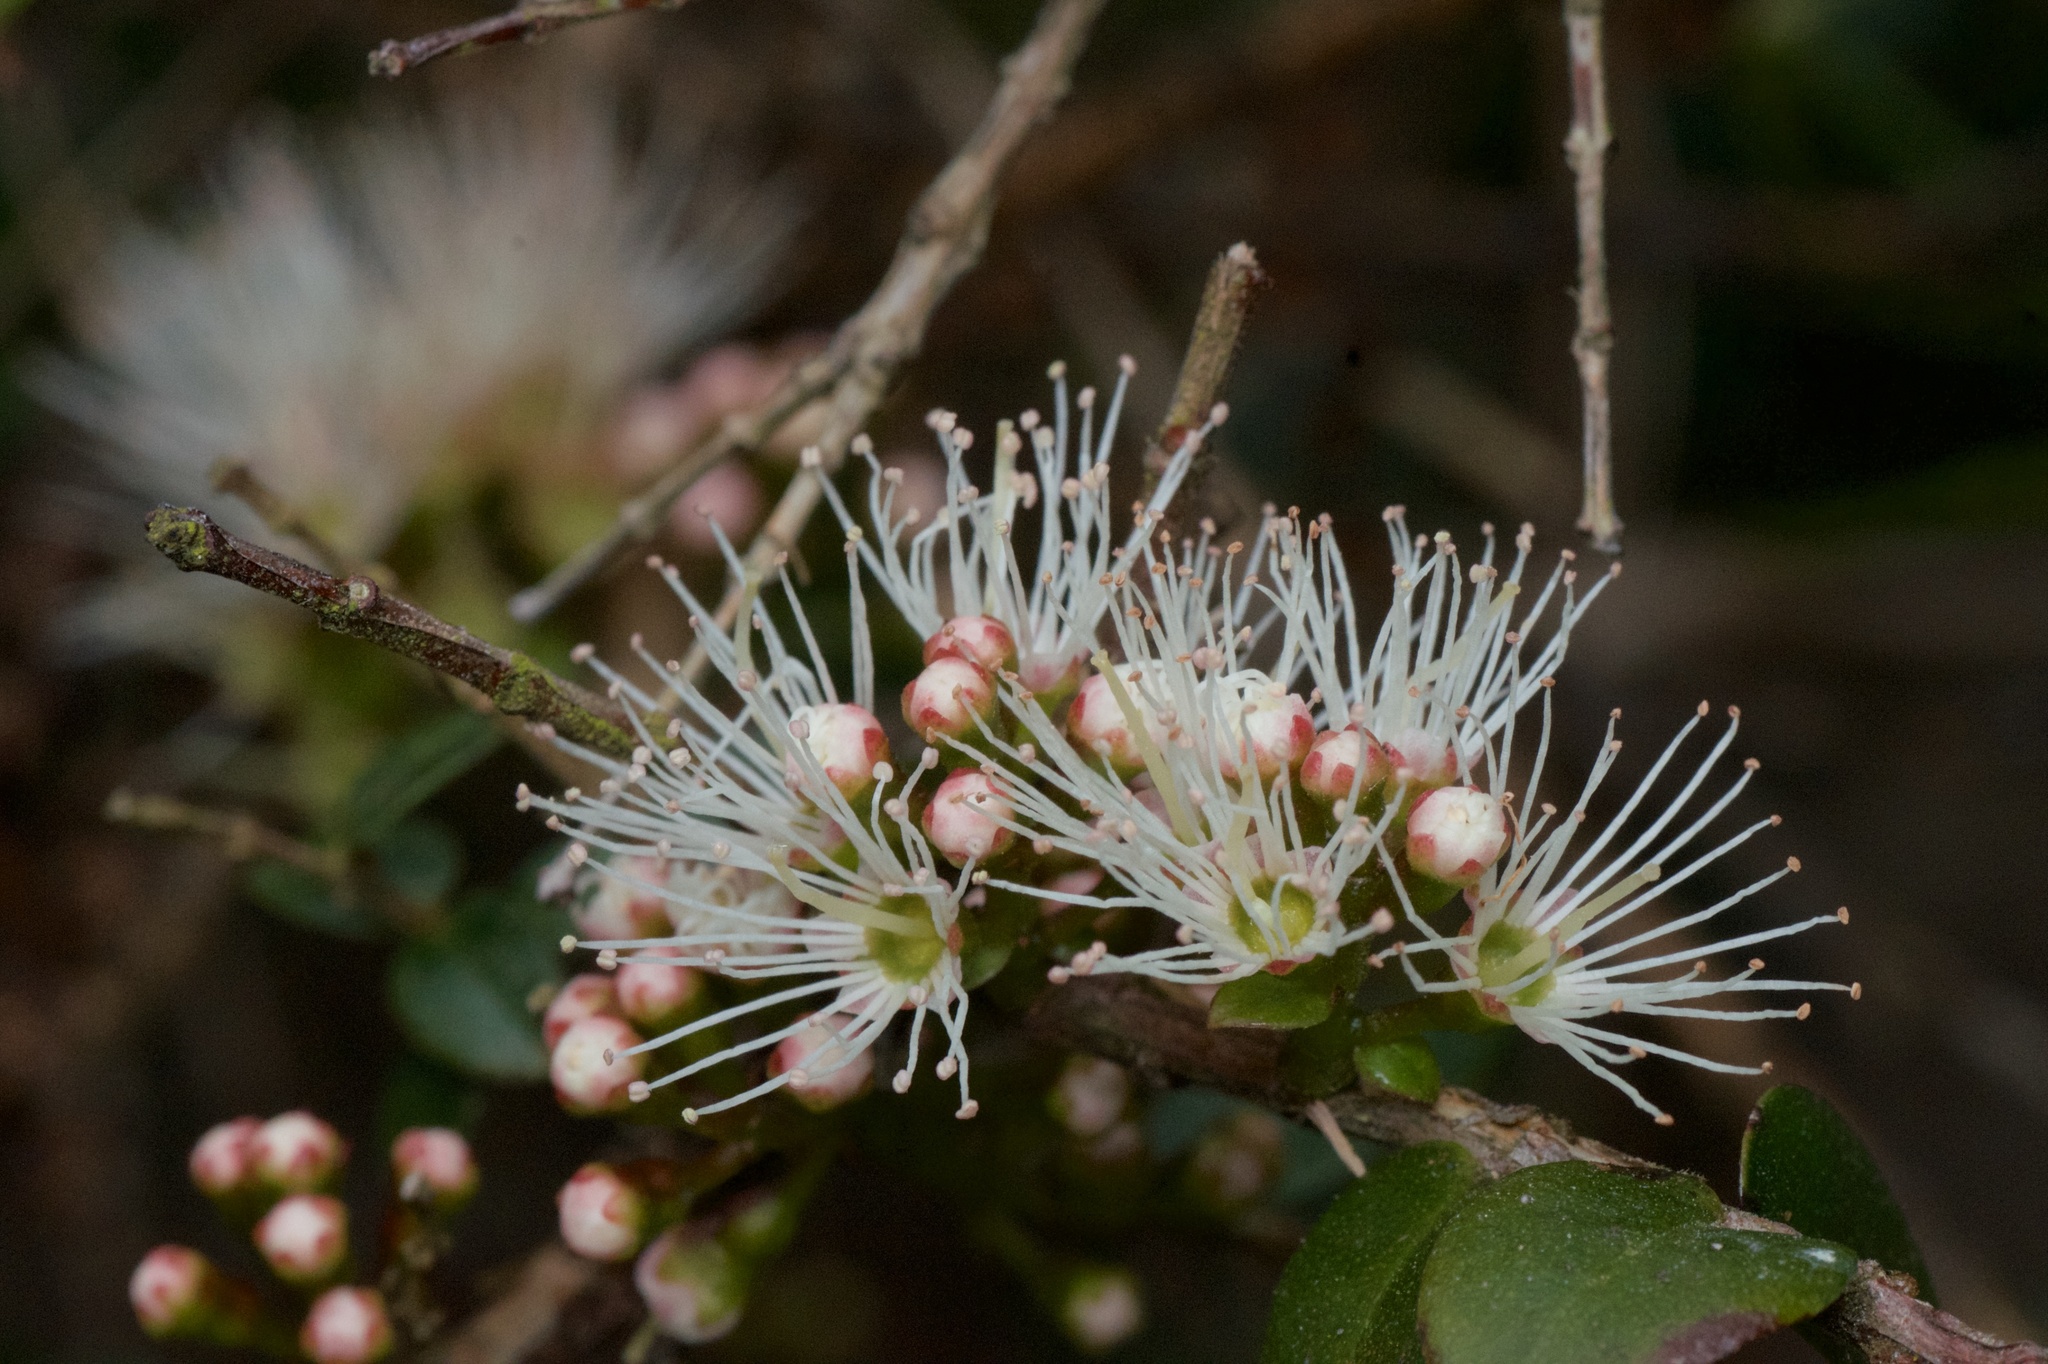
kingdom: Plantae
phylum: Tracheophyta
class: Magnoliopsida
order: Myrtales
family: Myrtaceae
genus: Metrosideros
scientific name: Metrosideros diffusa
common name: Small ratavine
